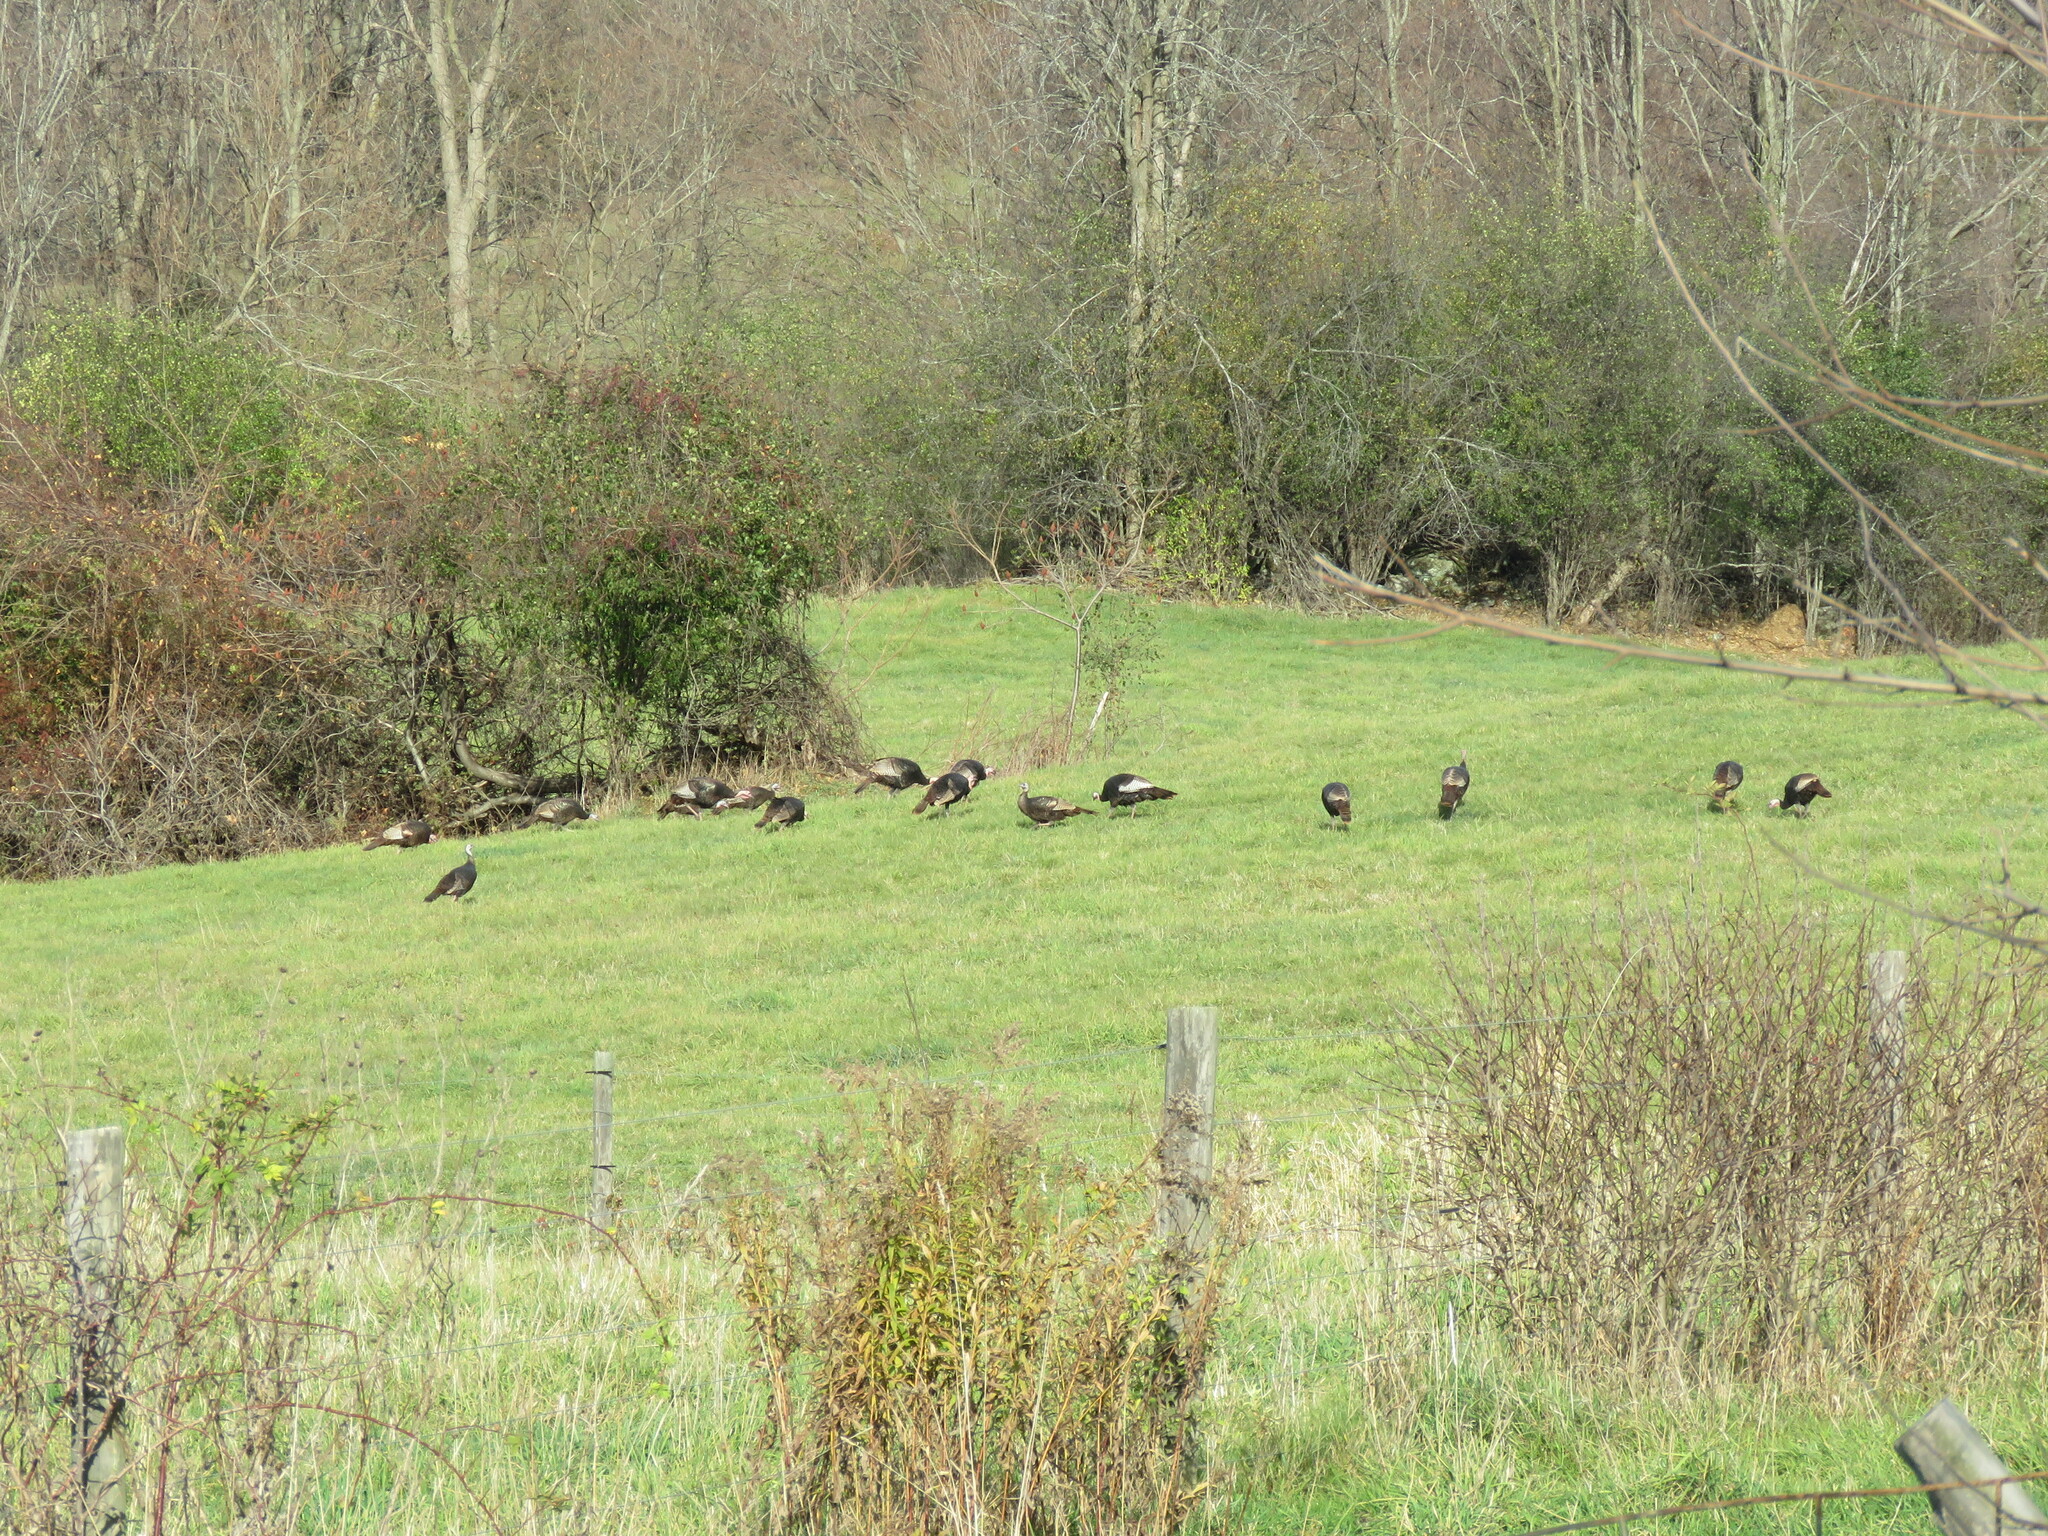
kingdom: Animalia
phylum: Chordata
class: Aves
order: Galliformes
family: Phasianidae
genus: Meleagris
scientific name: Meleagris gallopavo
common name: Wild turkey
